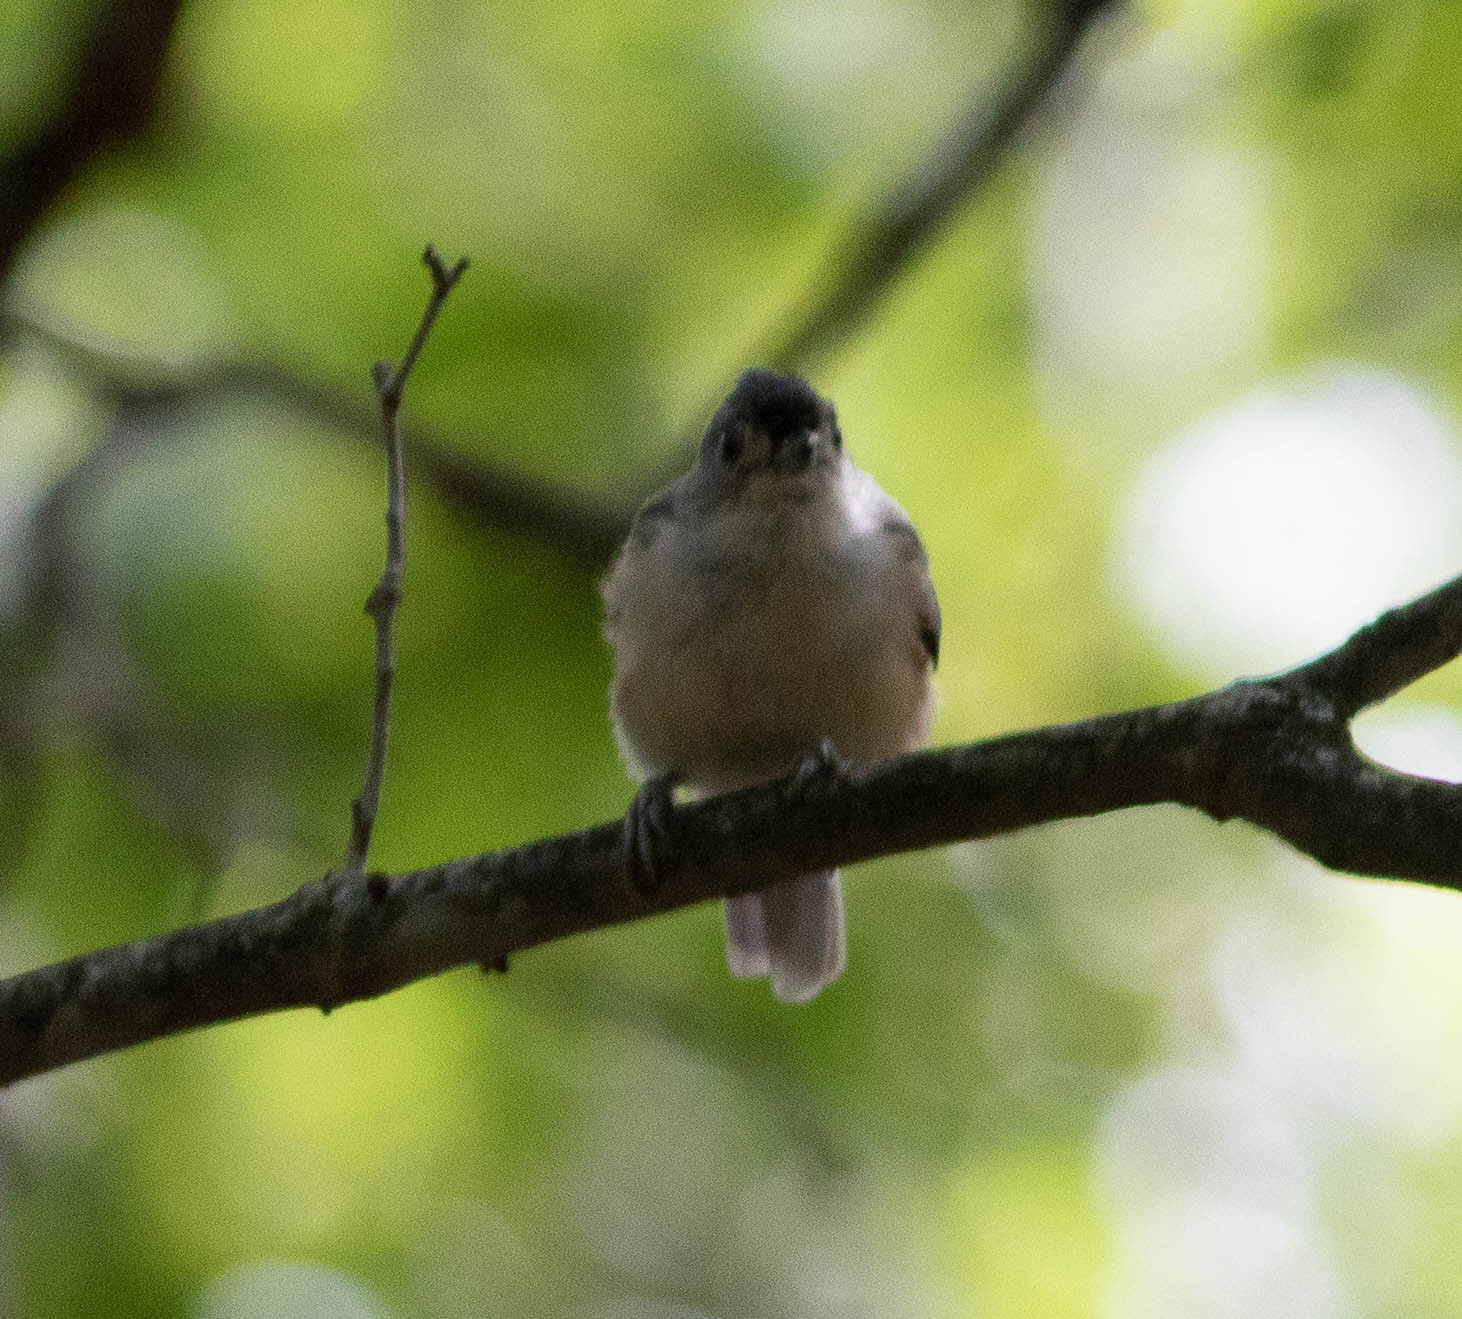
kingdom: Animalia
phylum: Chordata
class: Aves
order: Passeriformes
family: Paridae
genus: Baeolophus
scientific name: Baeolophus bicolor
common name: Tufted titmouse
